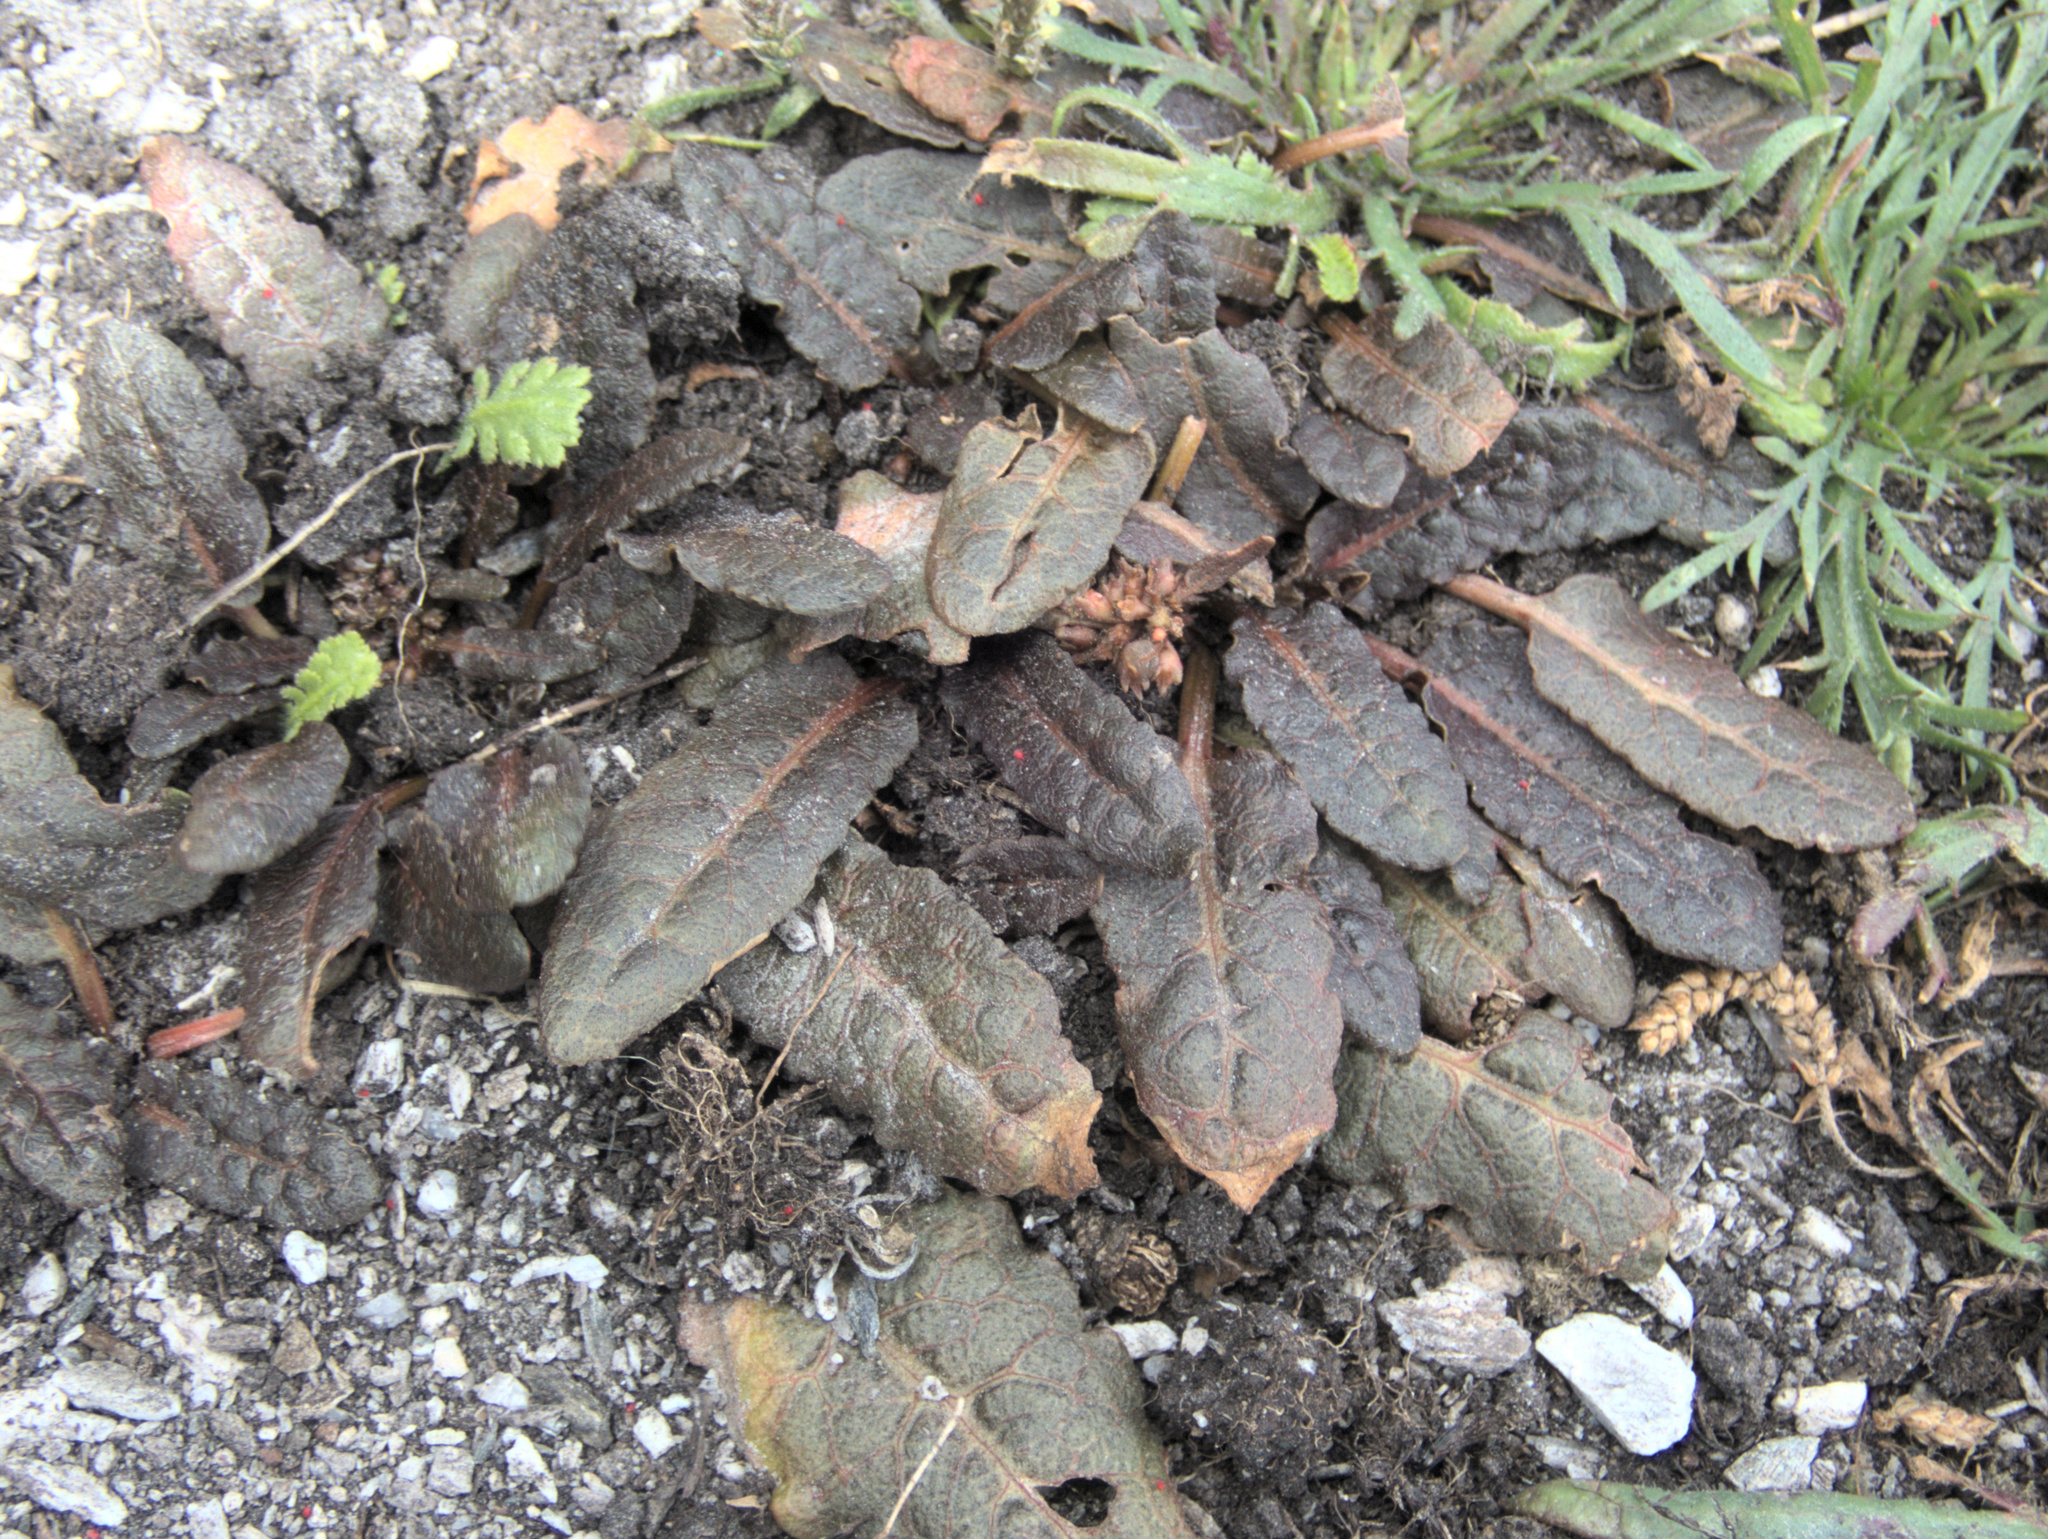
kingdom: Plantae
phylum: Tracheophyta
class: Magnoliopsida
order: Caryophyllales
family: Polygonaceae
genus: Rumex
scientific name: Rumex neglectus
